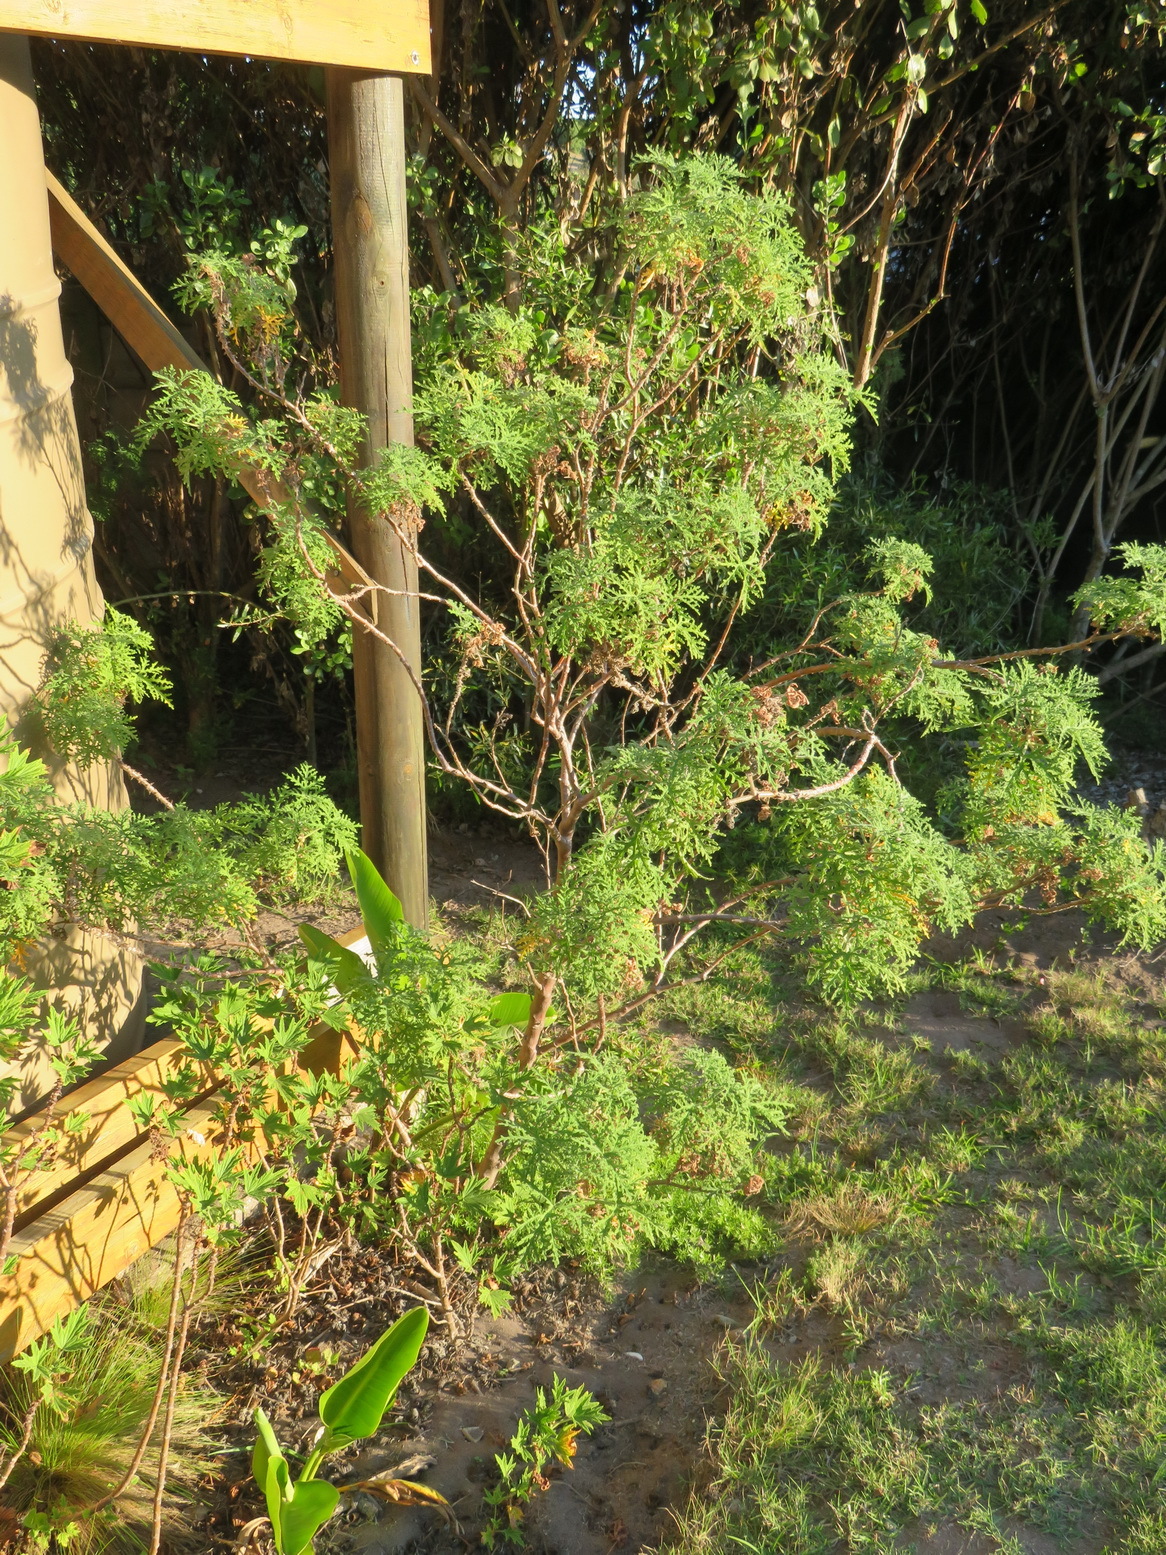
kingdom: Plantae
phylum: Tracheophyta
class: Magnoliopsida
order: Geraniales
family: Geraniaceae
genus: Pelargonium
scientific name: Pelargonium radens
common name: Rasp-leaf pelargonium
